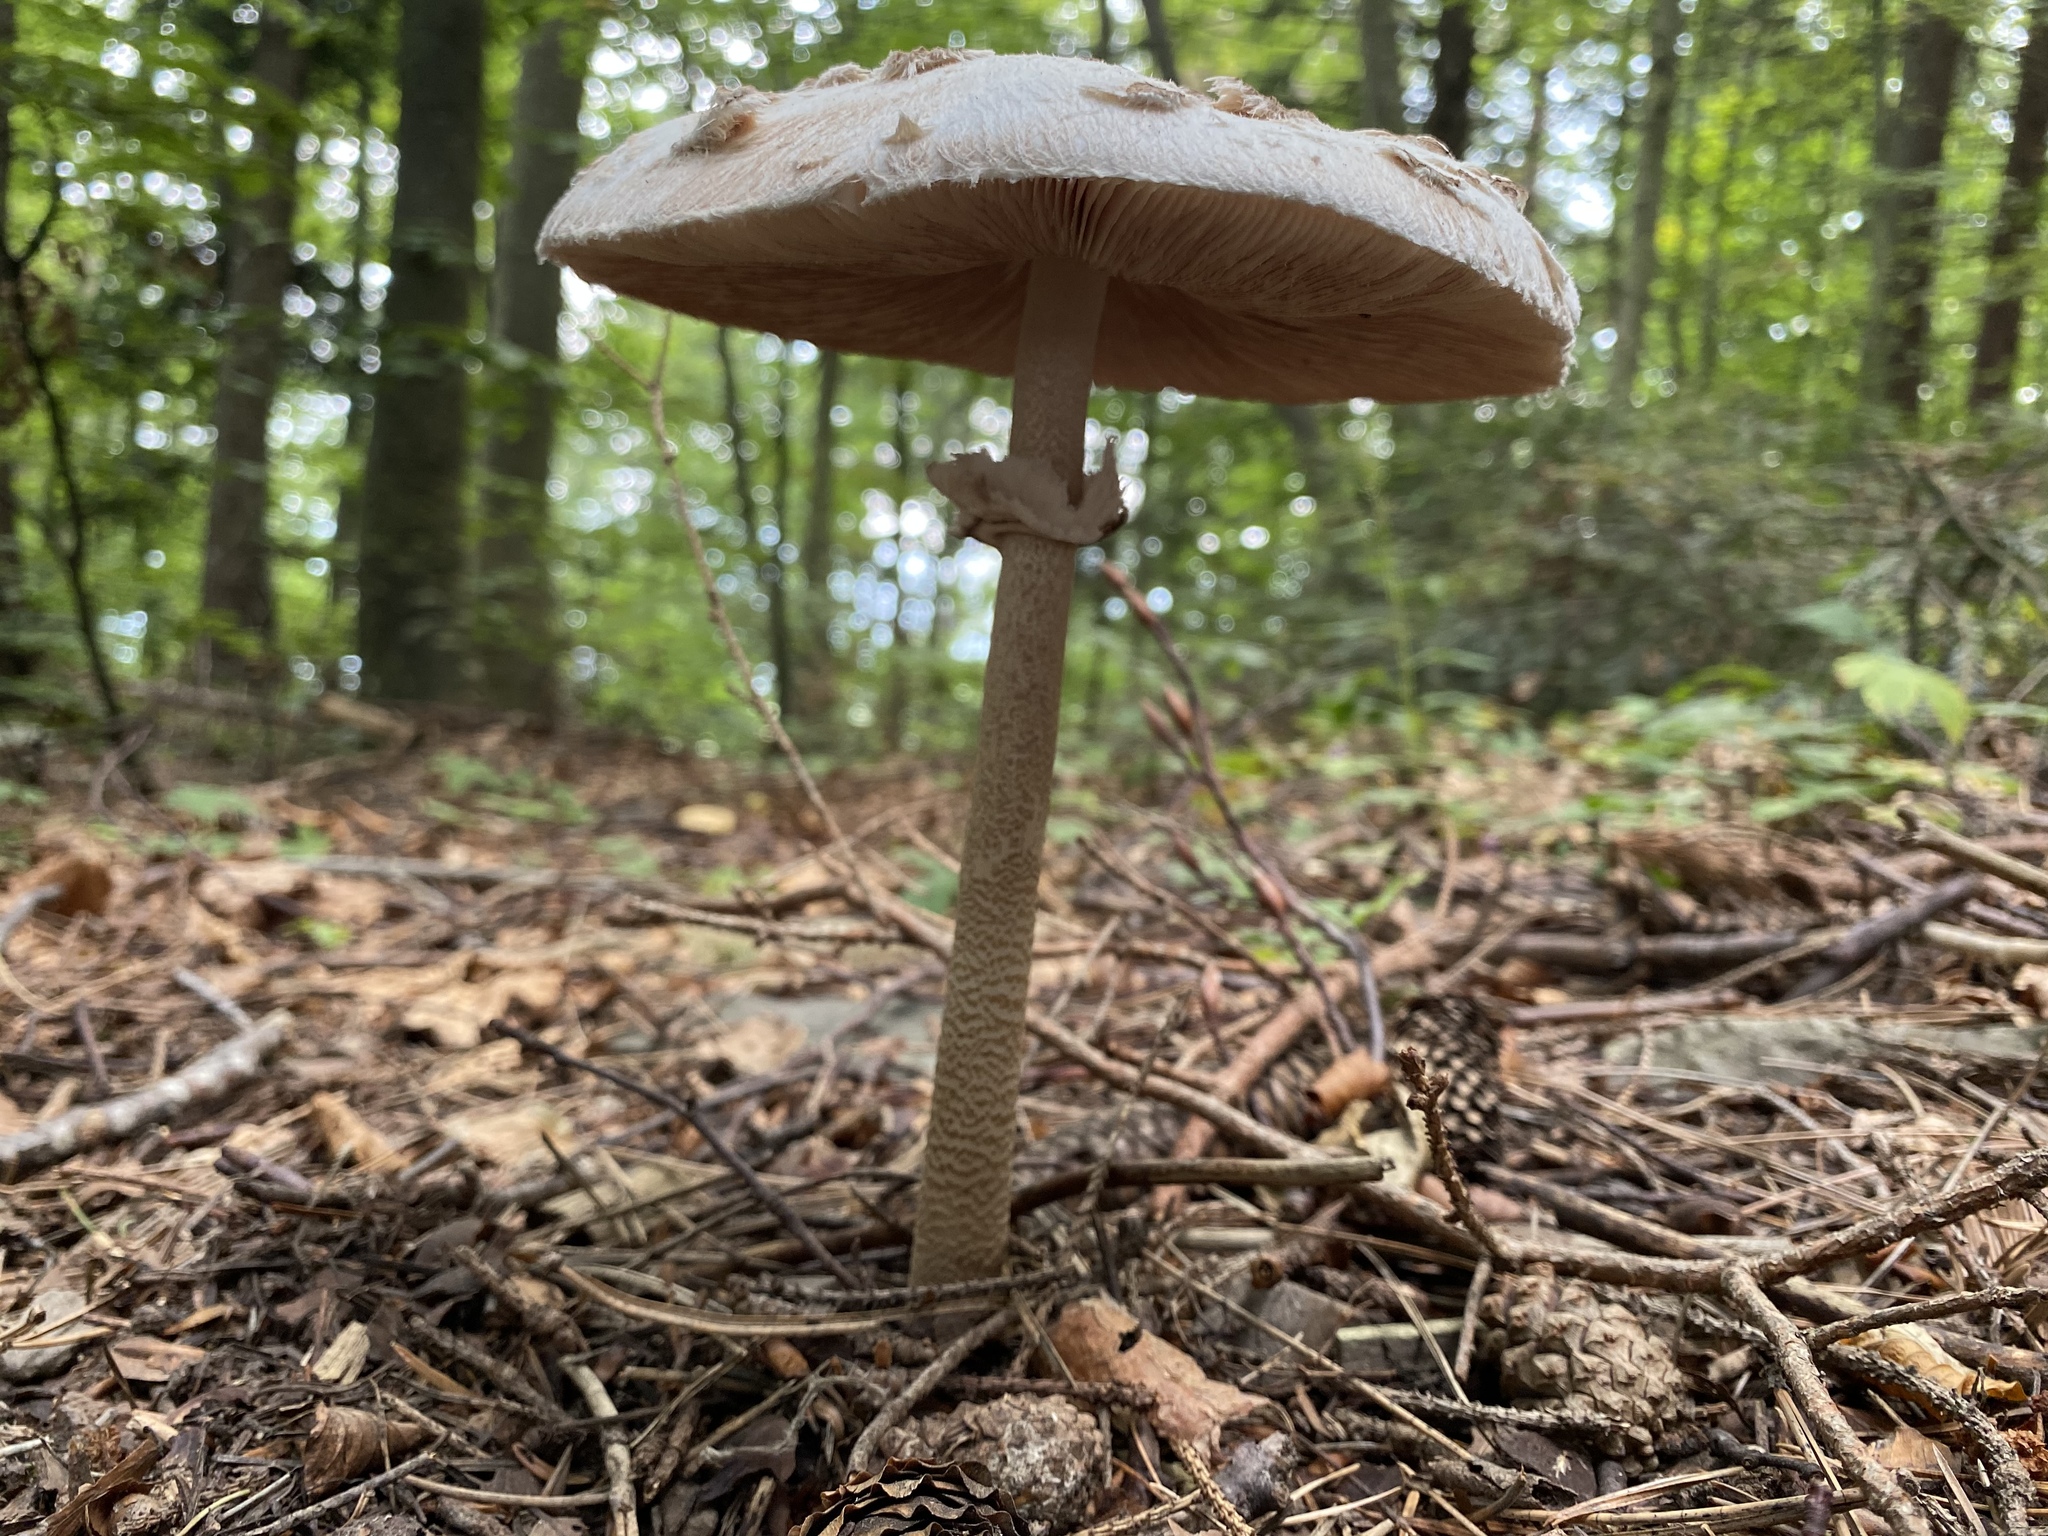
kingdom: Fungi
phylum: Basidiomycota
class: Agaricomycetes
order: Agaricales
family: Agaricaceae
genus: Macrolepiota
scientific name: Macrolepiota procera
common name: Parasol
